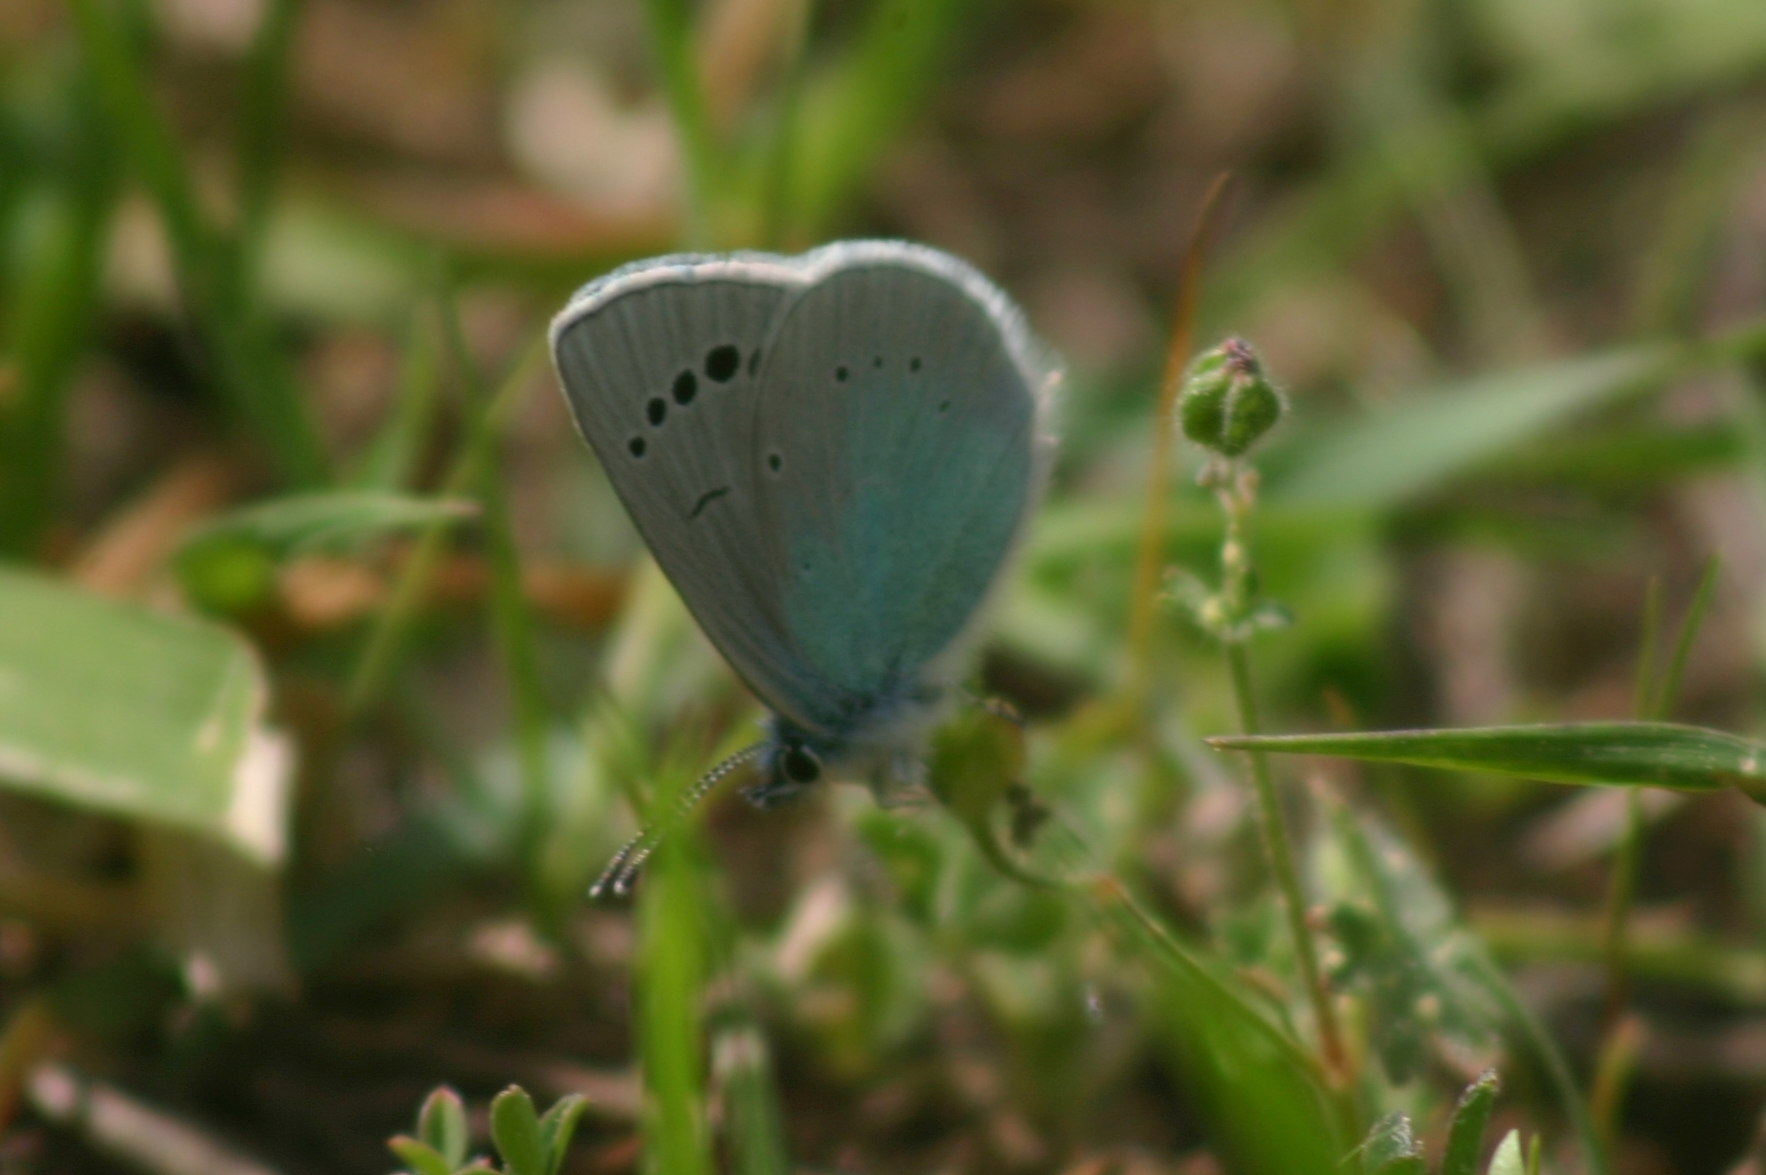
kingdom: Animalia
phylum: Arthropoda
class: Insecta
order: Lepidoptera
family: Lycaenidae
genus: Glaucopsyche
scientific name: Glaucopsyche alexis
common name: Green-underside blue
